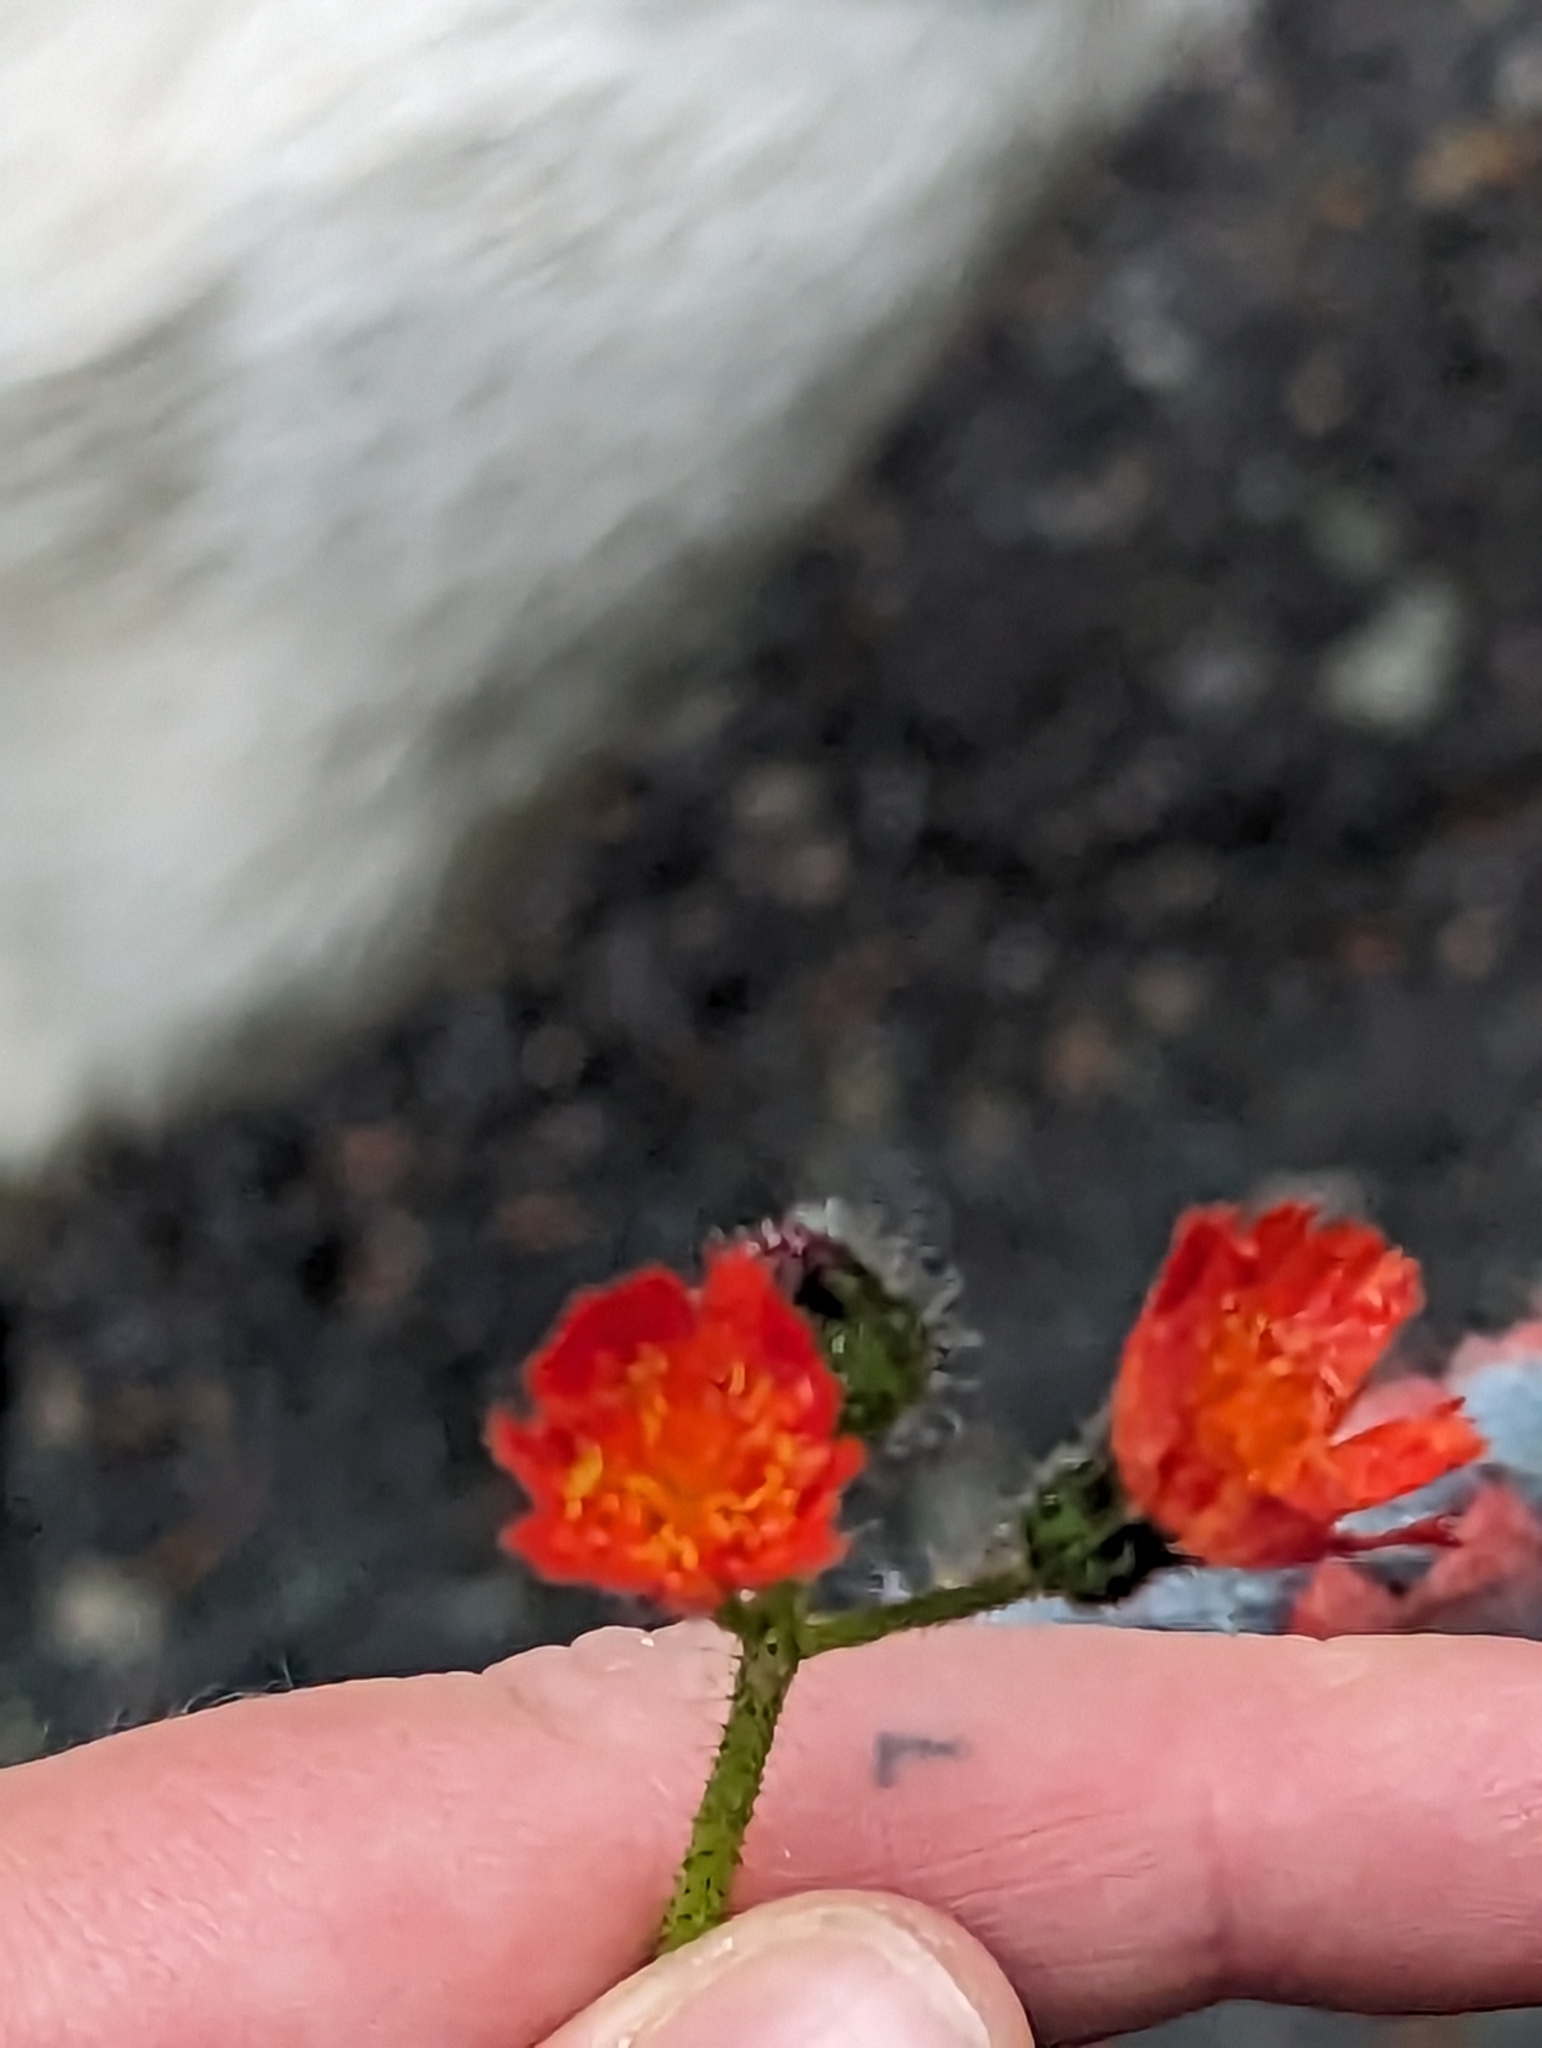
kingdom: Plantae
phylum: Tracheophyta
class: Magnoliopsida
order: Asterales
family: Asteraceae
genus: Pilosella
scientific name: Pilosella aurantiaca
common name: Fox-and-cubs
